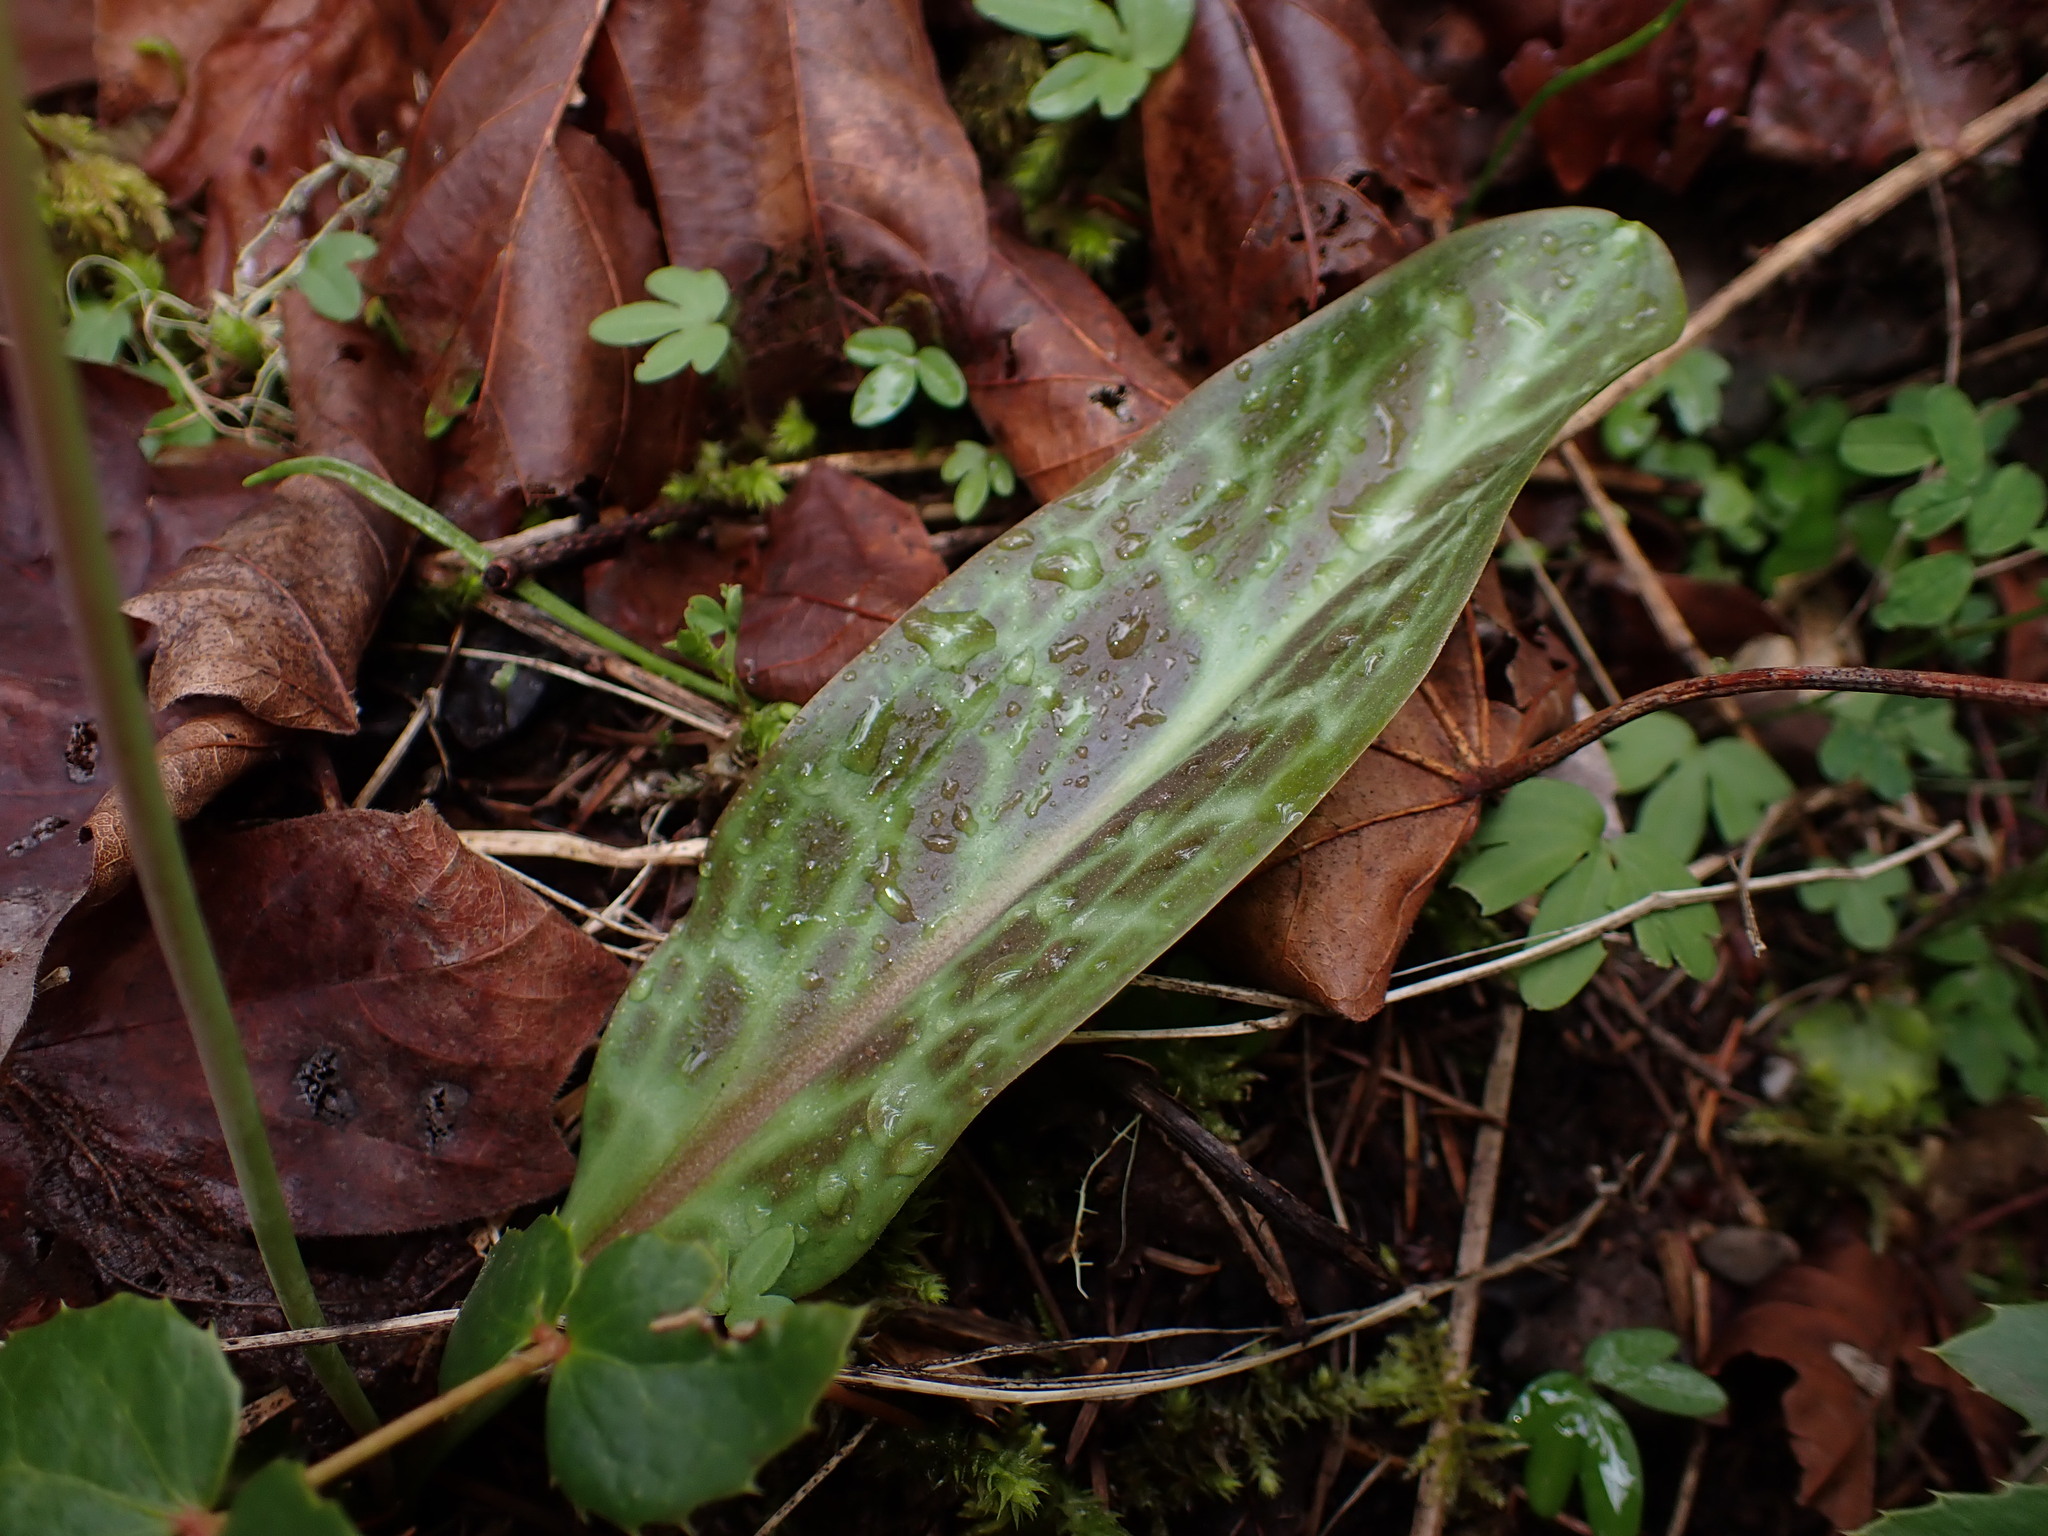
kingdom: Plantae
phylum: Tracheophyta
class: Liliopsida
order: Liliales
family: Liliaceae
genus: Erythronium
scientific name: Erythronium oregonum
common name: Giant adder's-tongue
